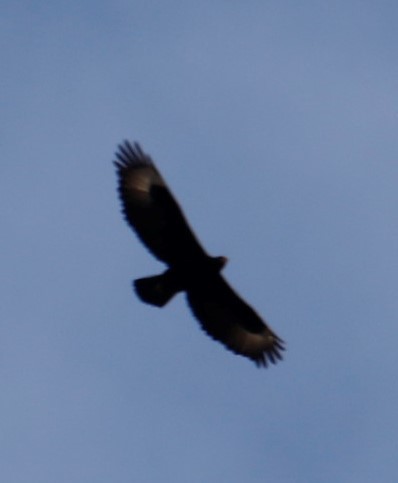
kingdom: Animalia
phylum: Chordata
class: Aves
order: Accipitriformes
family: Accipitridae
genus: Aquila
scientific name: Aquila verreauxii
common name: Verreaux's eagle
